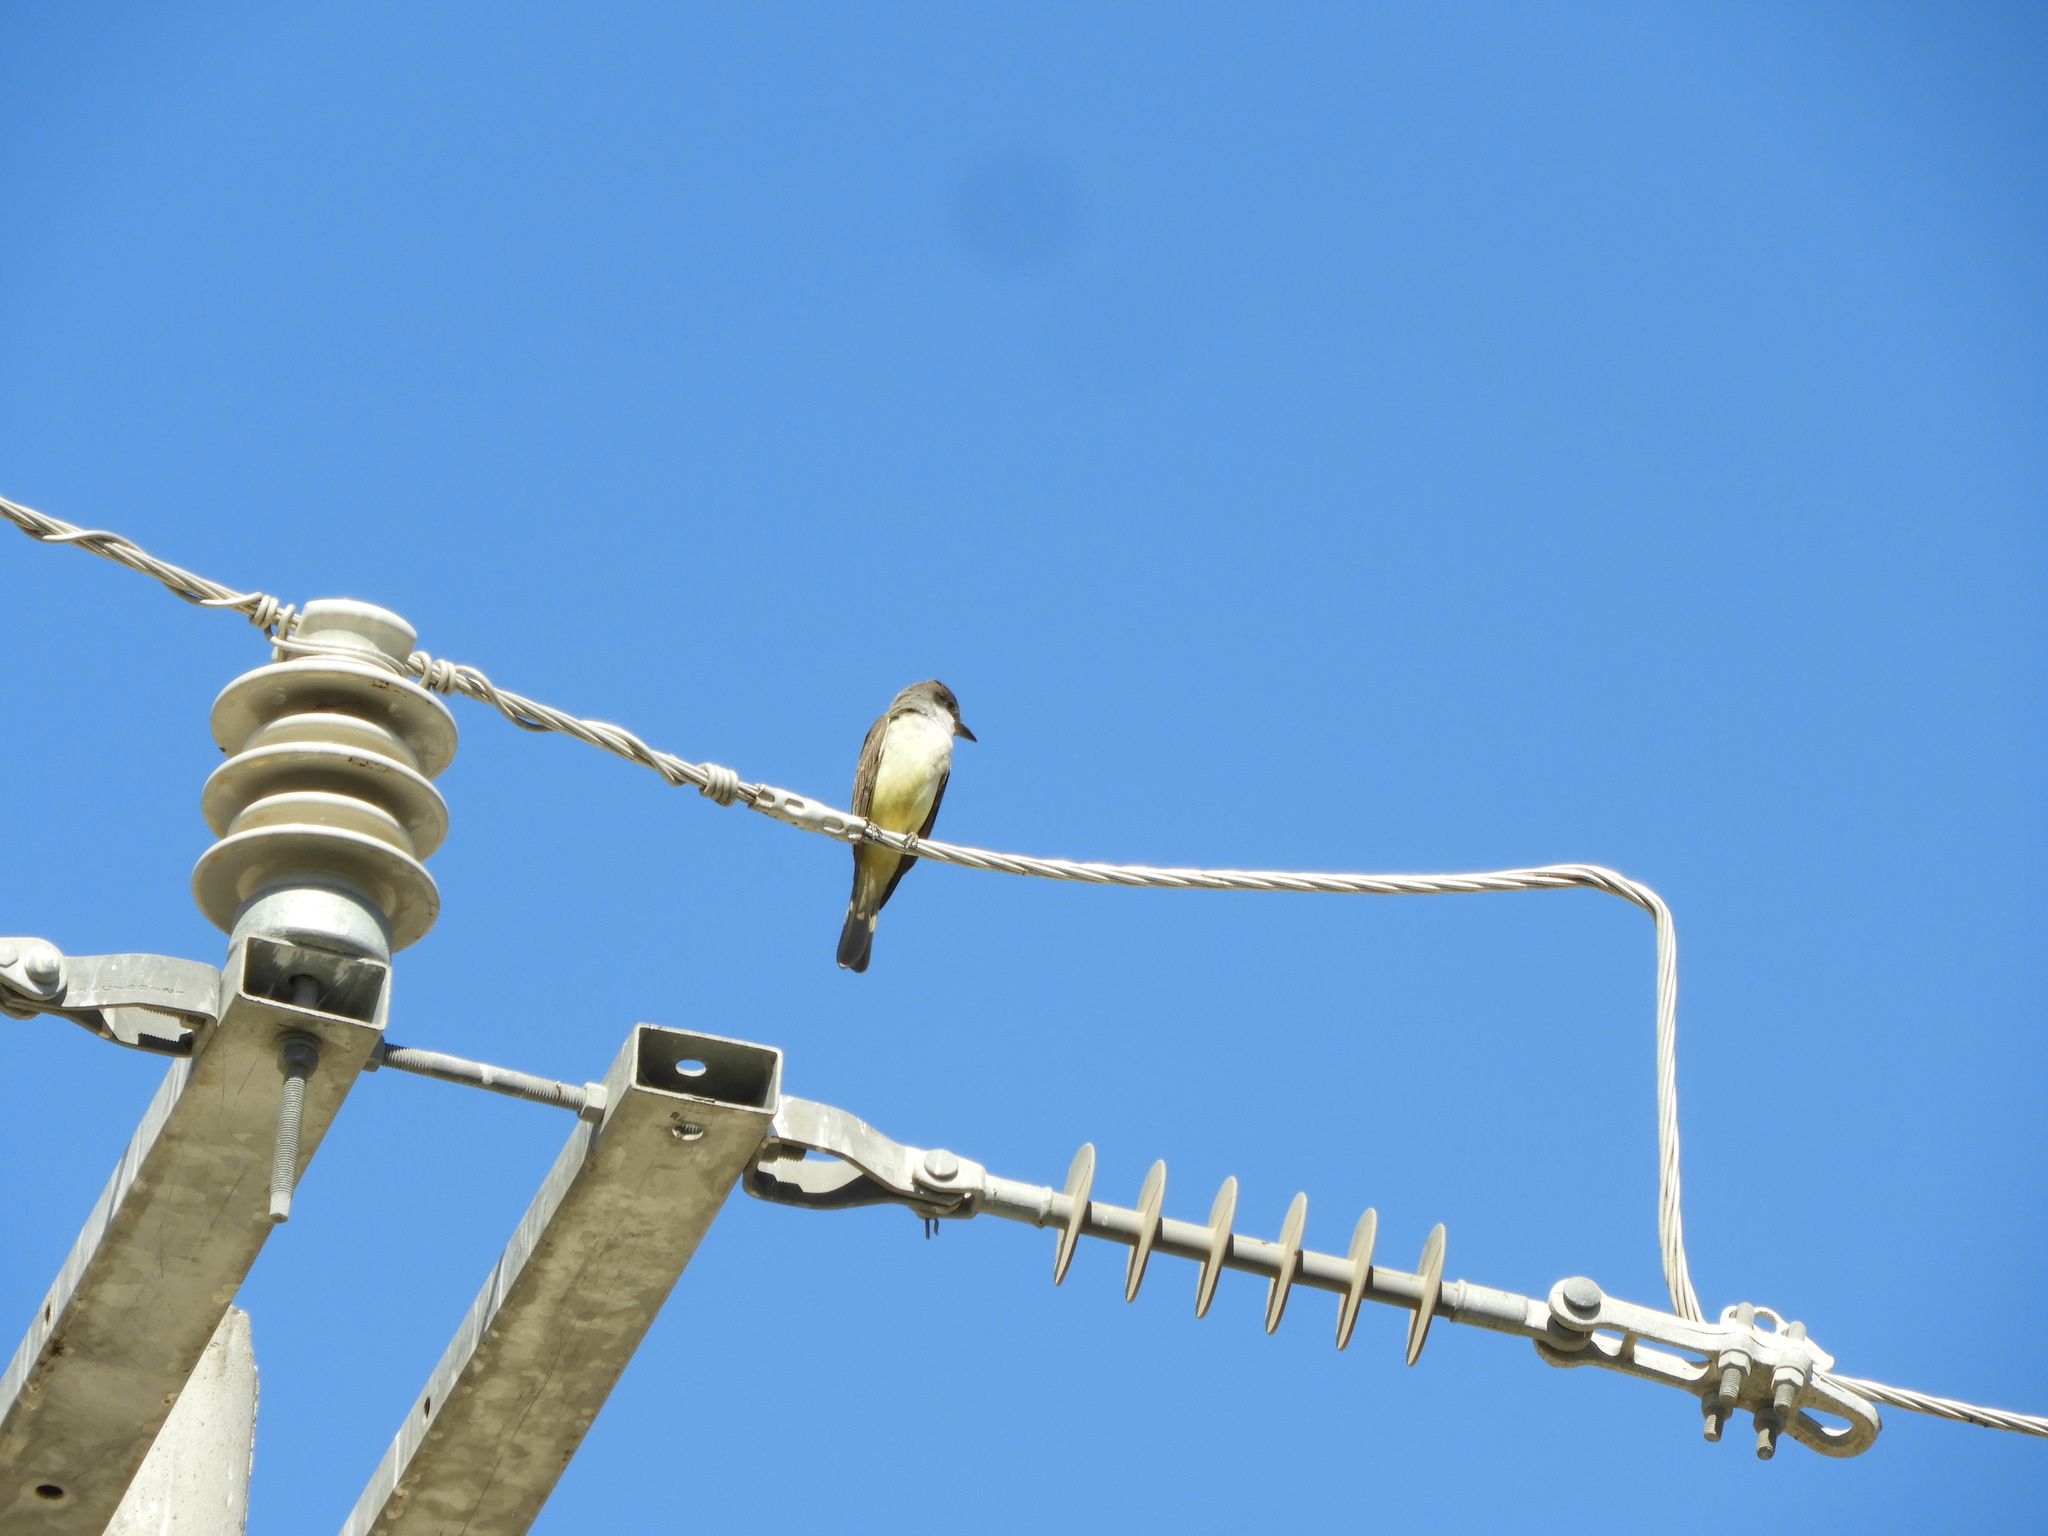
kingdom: Animalia
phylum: Chordata
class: Aves
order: Passeriformes
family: Tyrannidae
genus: Tyrannus
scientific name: Tyrannus melancholicus
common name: Tropical kingbird
